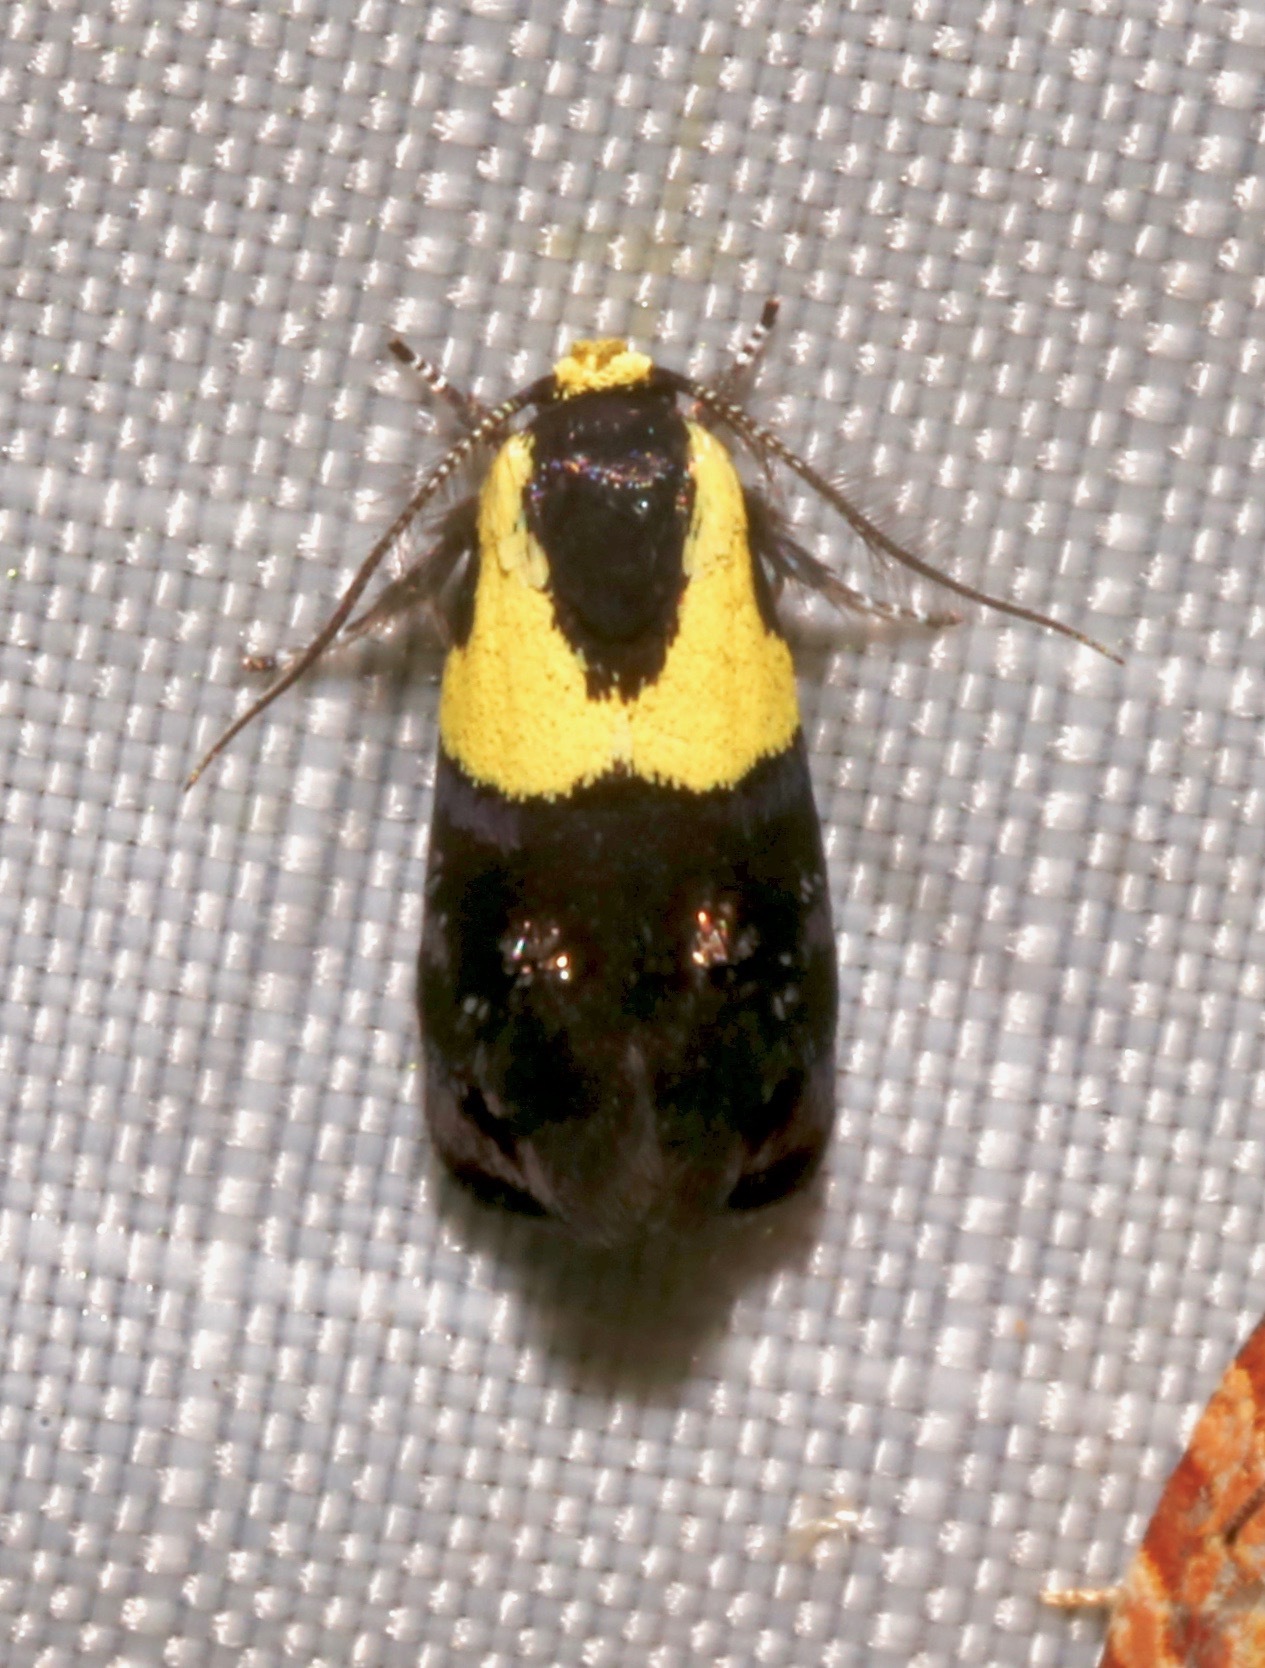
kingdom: Animalia
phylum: Arthropoda
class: Insecta
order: Lepidoptera
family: Depressariidae
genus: Rectiostoma
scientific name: Rectiostoma xanthobasis
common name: Yellow-vested moth
